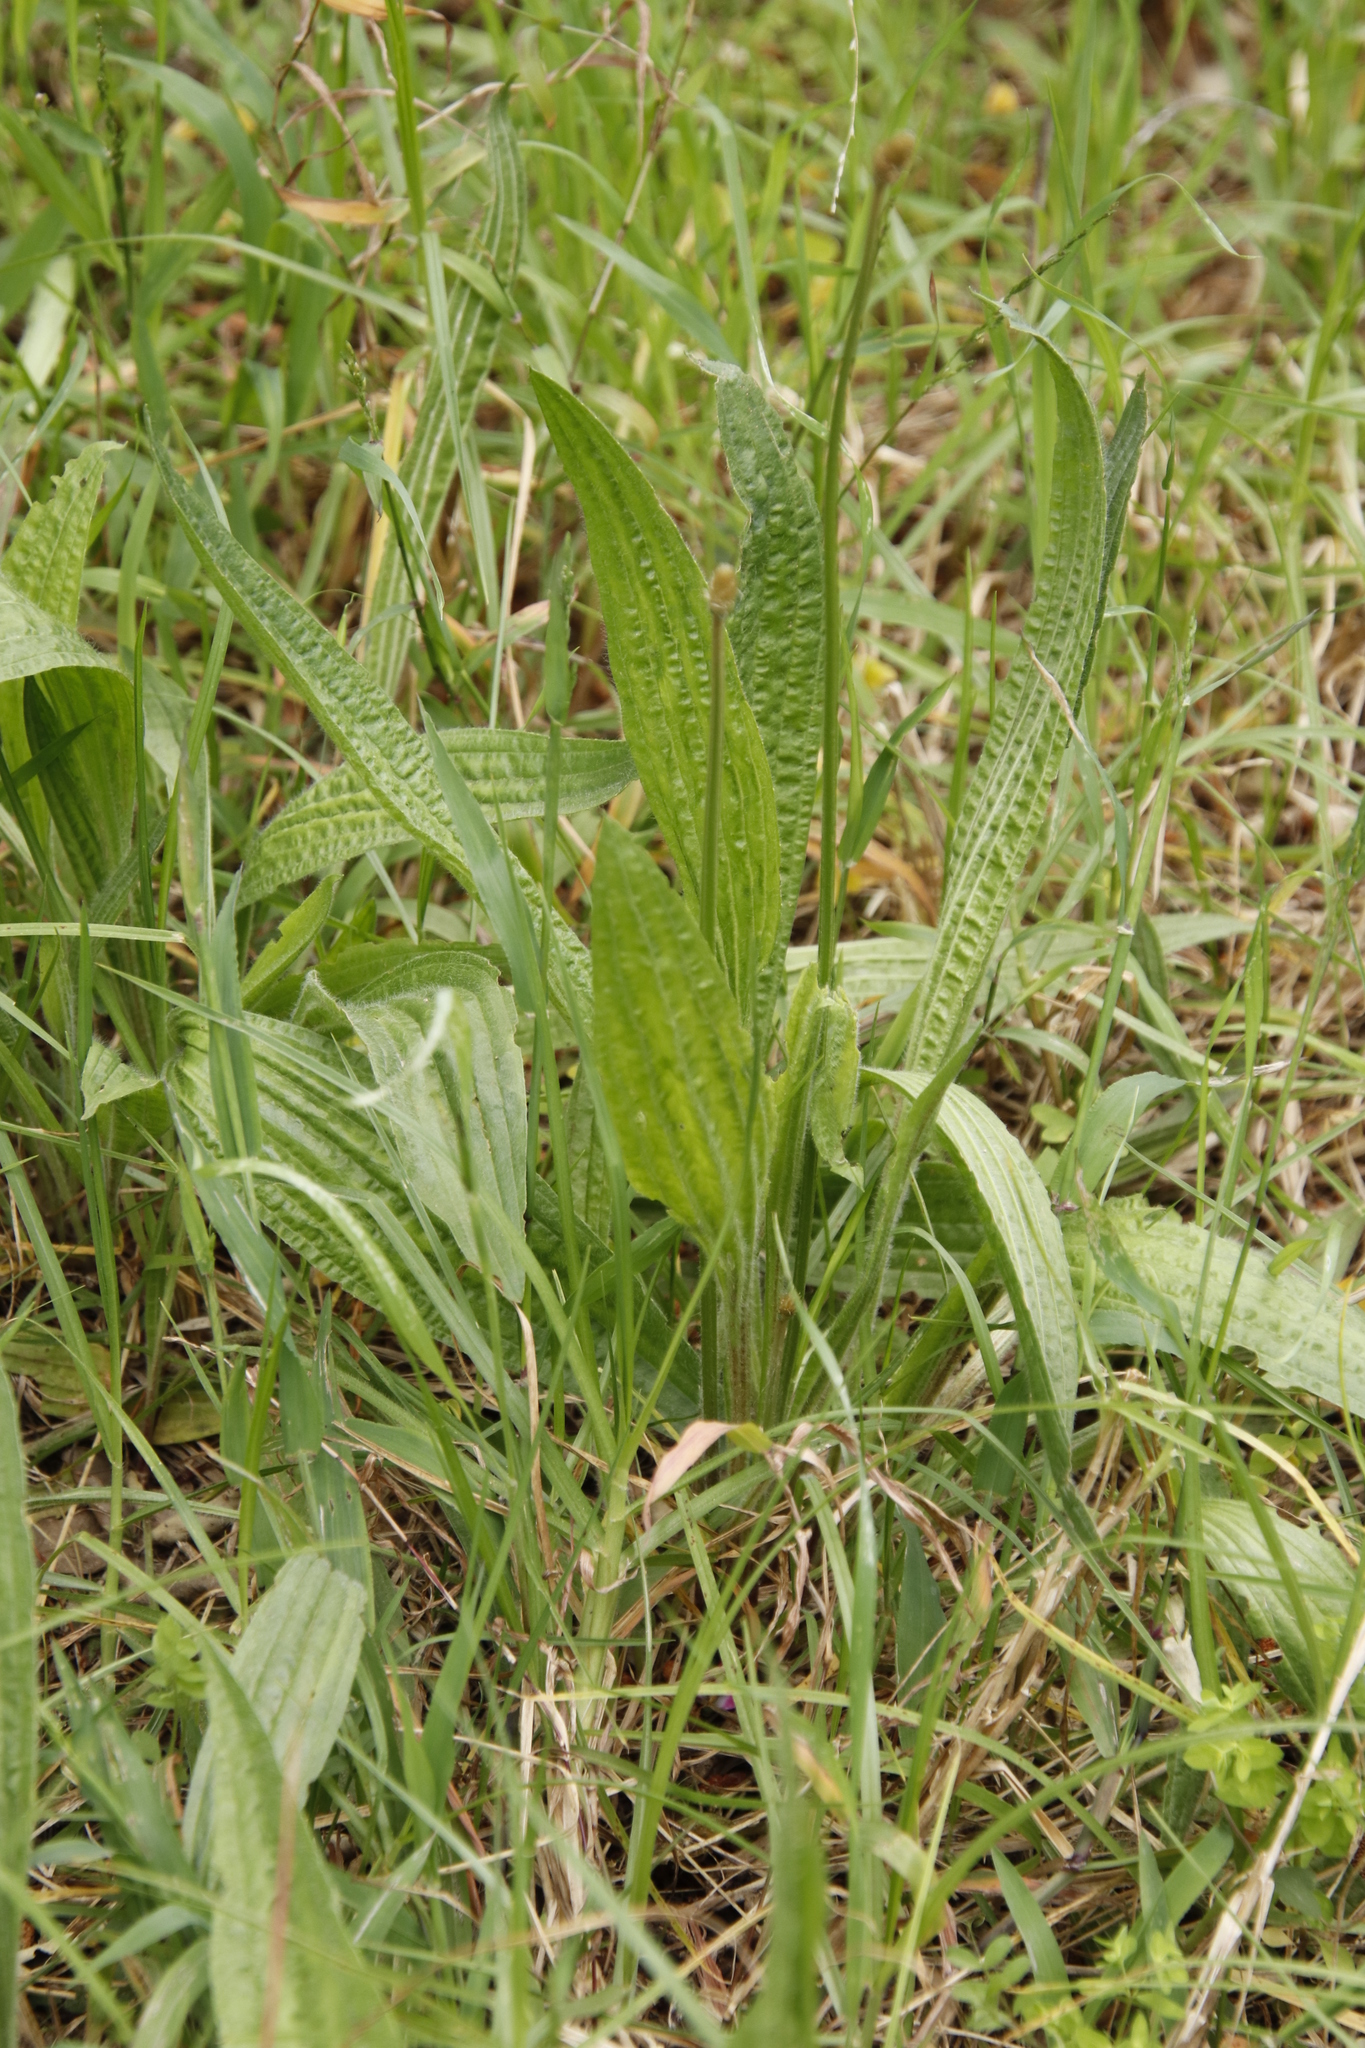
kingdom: Plantae
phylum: Tracheophyta
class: Magnoliopsida
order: Lamiales
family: Plantaginaceae
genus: Plantago
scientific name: Plantago lanceolata
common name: Ribwort plantain
